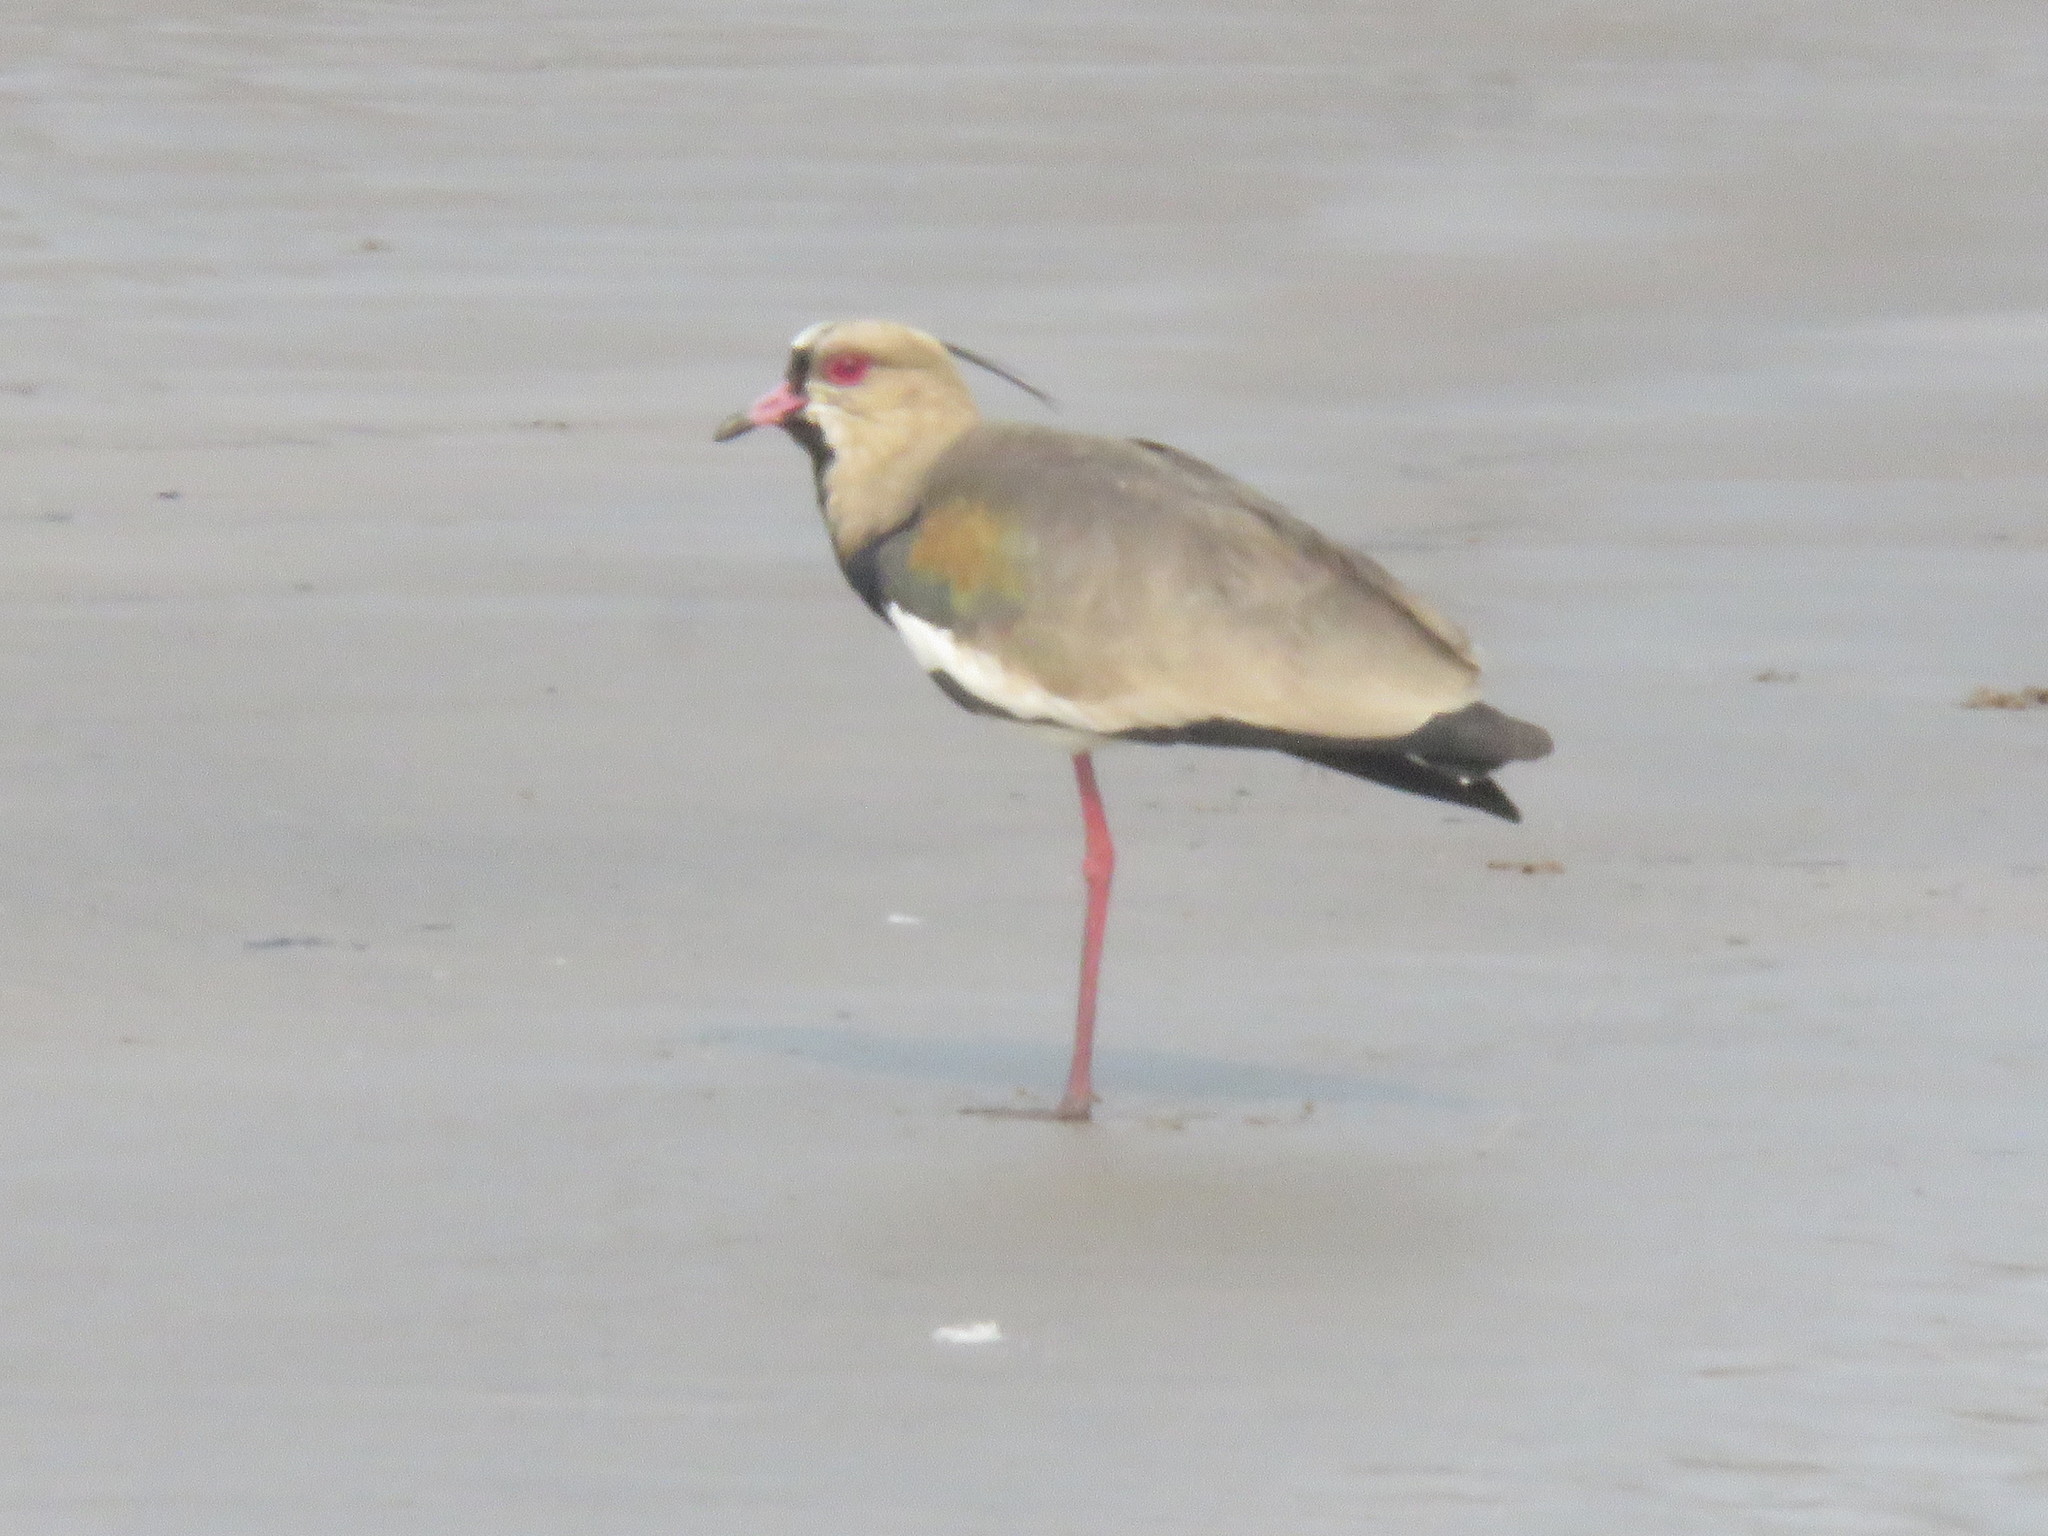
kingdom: Animalia
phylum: Chordata
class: Aves
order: Charadriiformes
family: Charadriidae
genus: Vanellus
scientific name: Vanellus chilensis
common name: Southern lapwing
